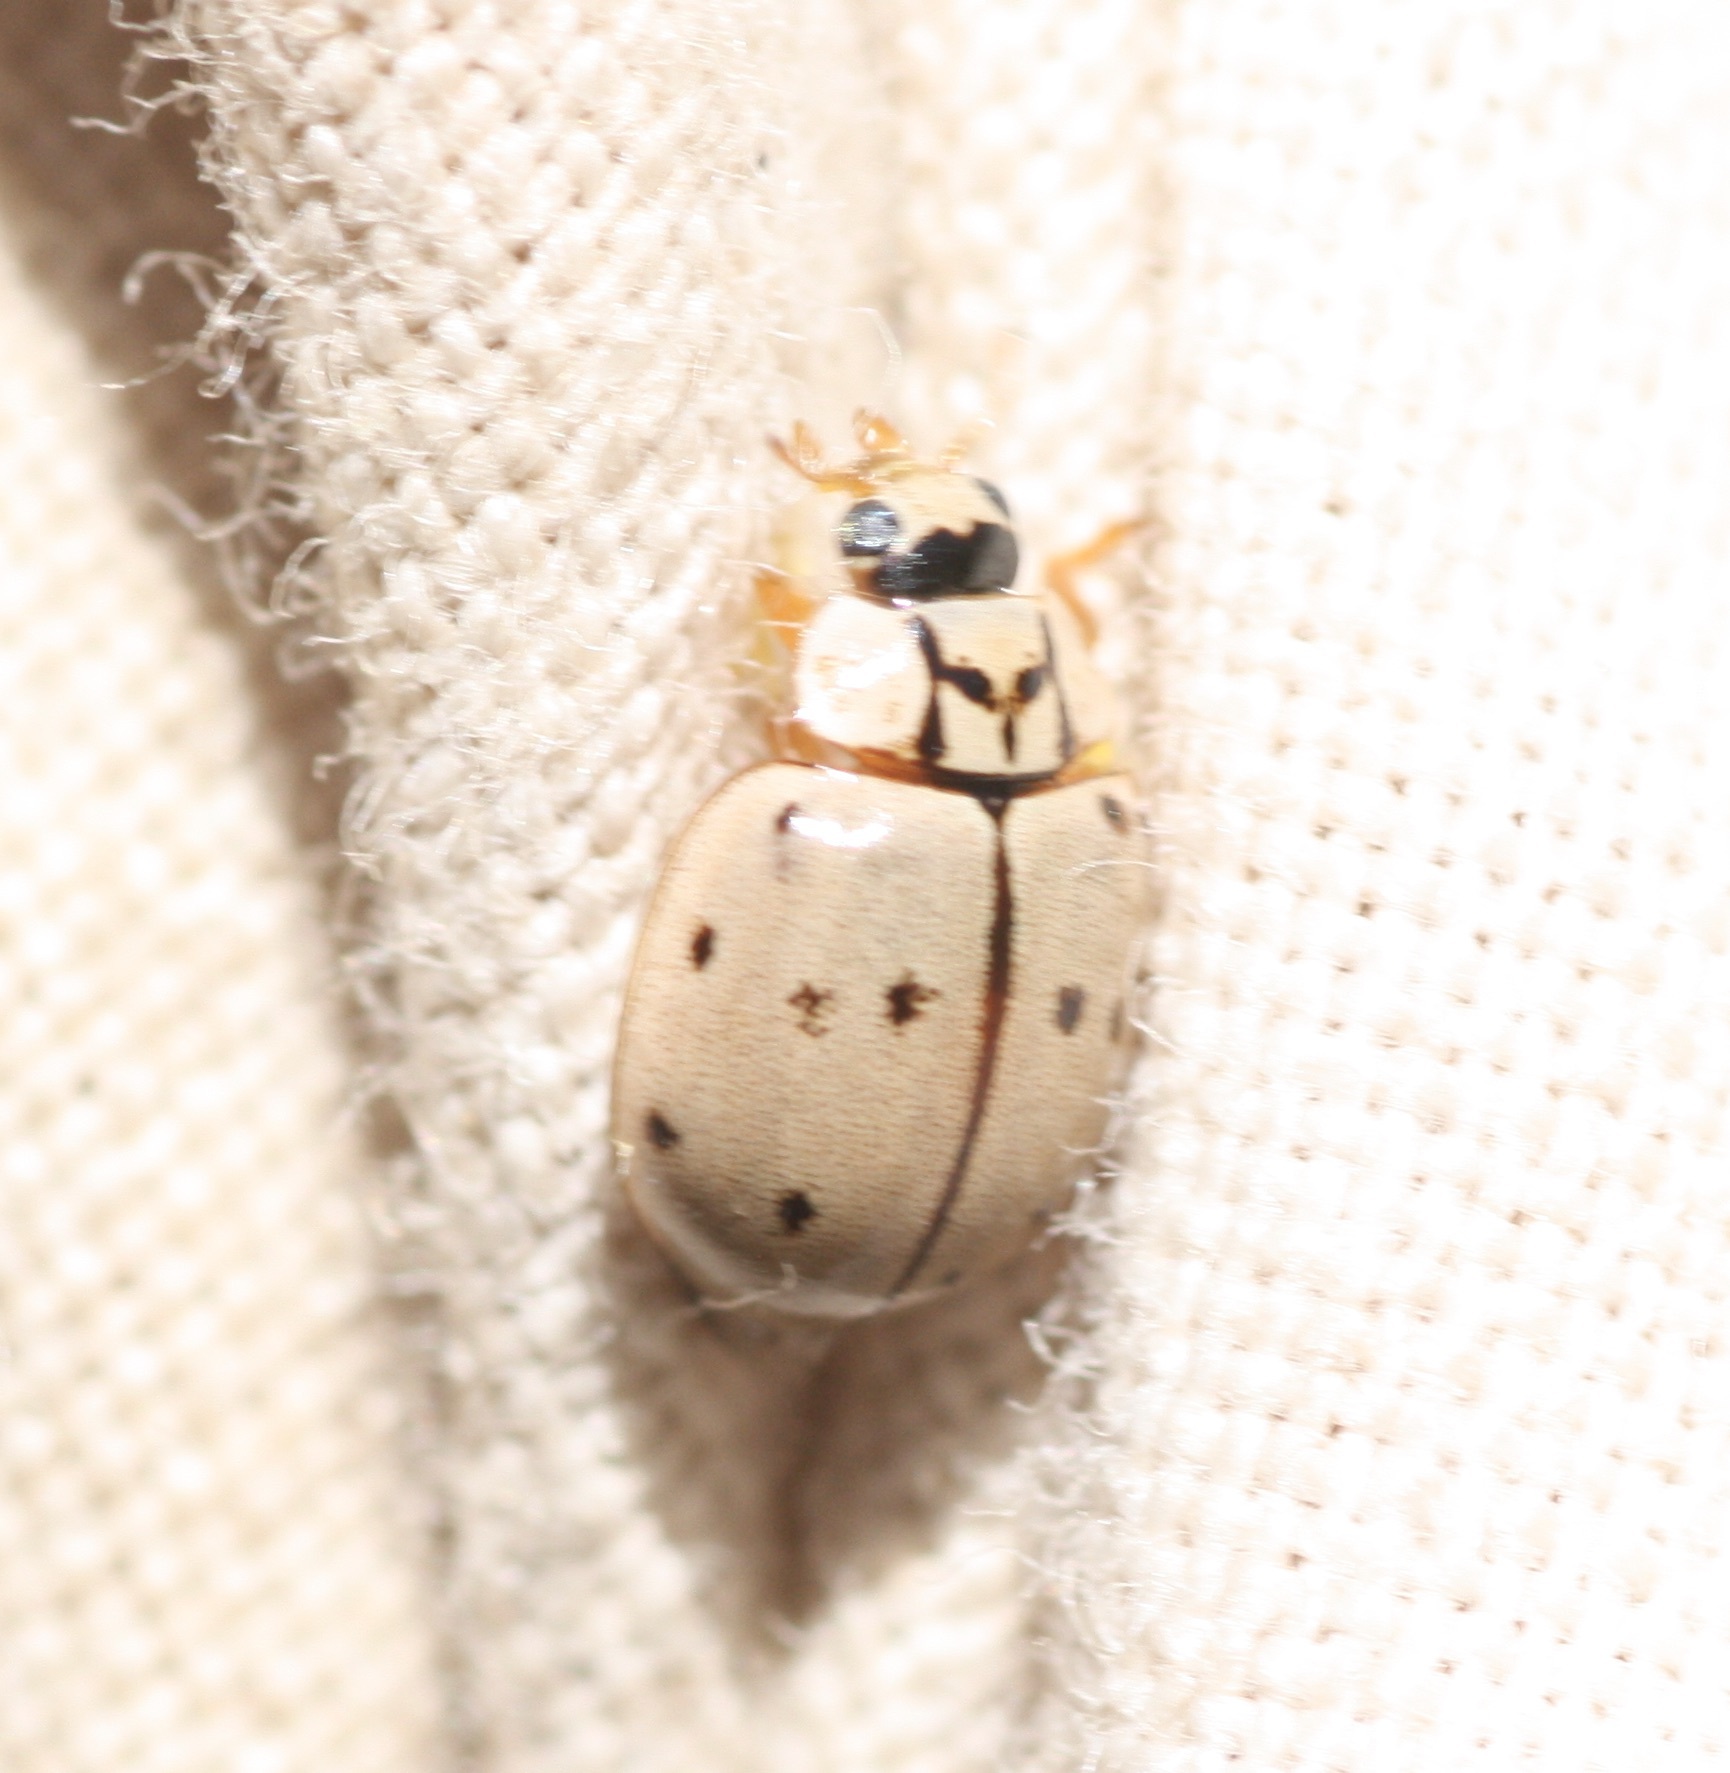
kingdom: Animalia
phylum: Arthropoda
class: Insecta
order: Coleoptera
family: Coccinellidae
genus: Mulsantina
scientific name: Mulsantina cyathigera
